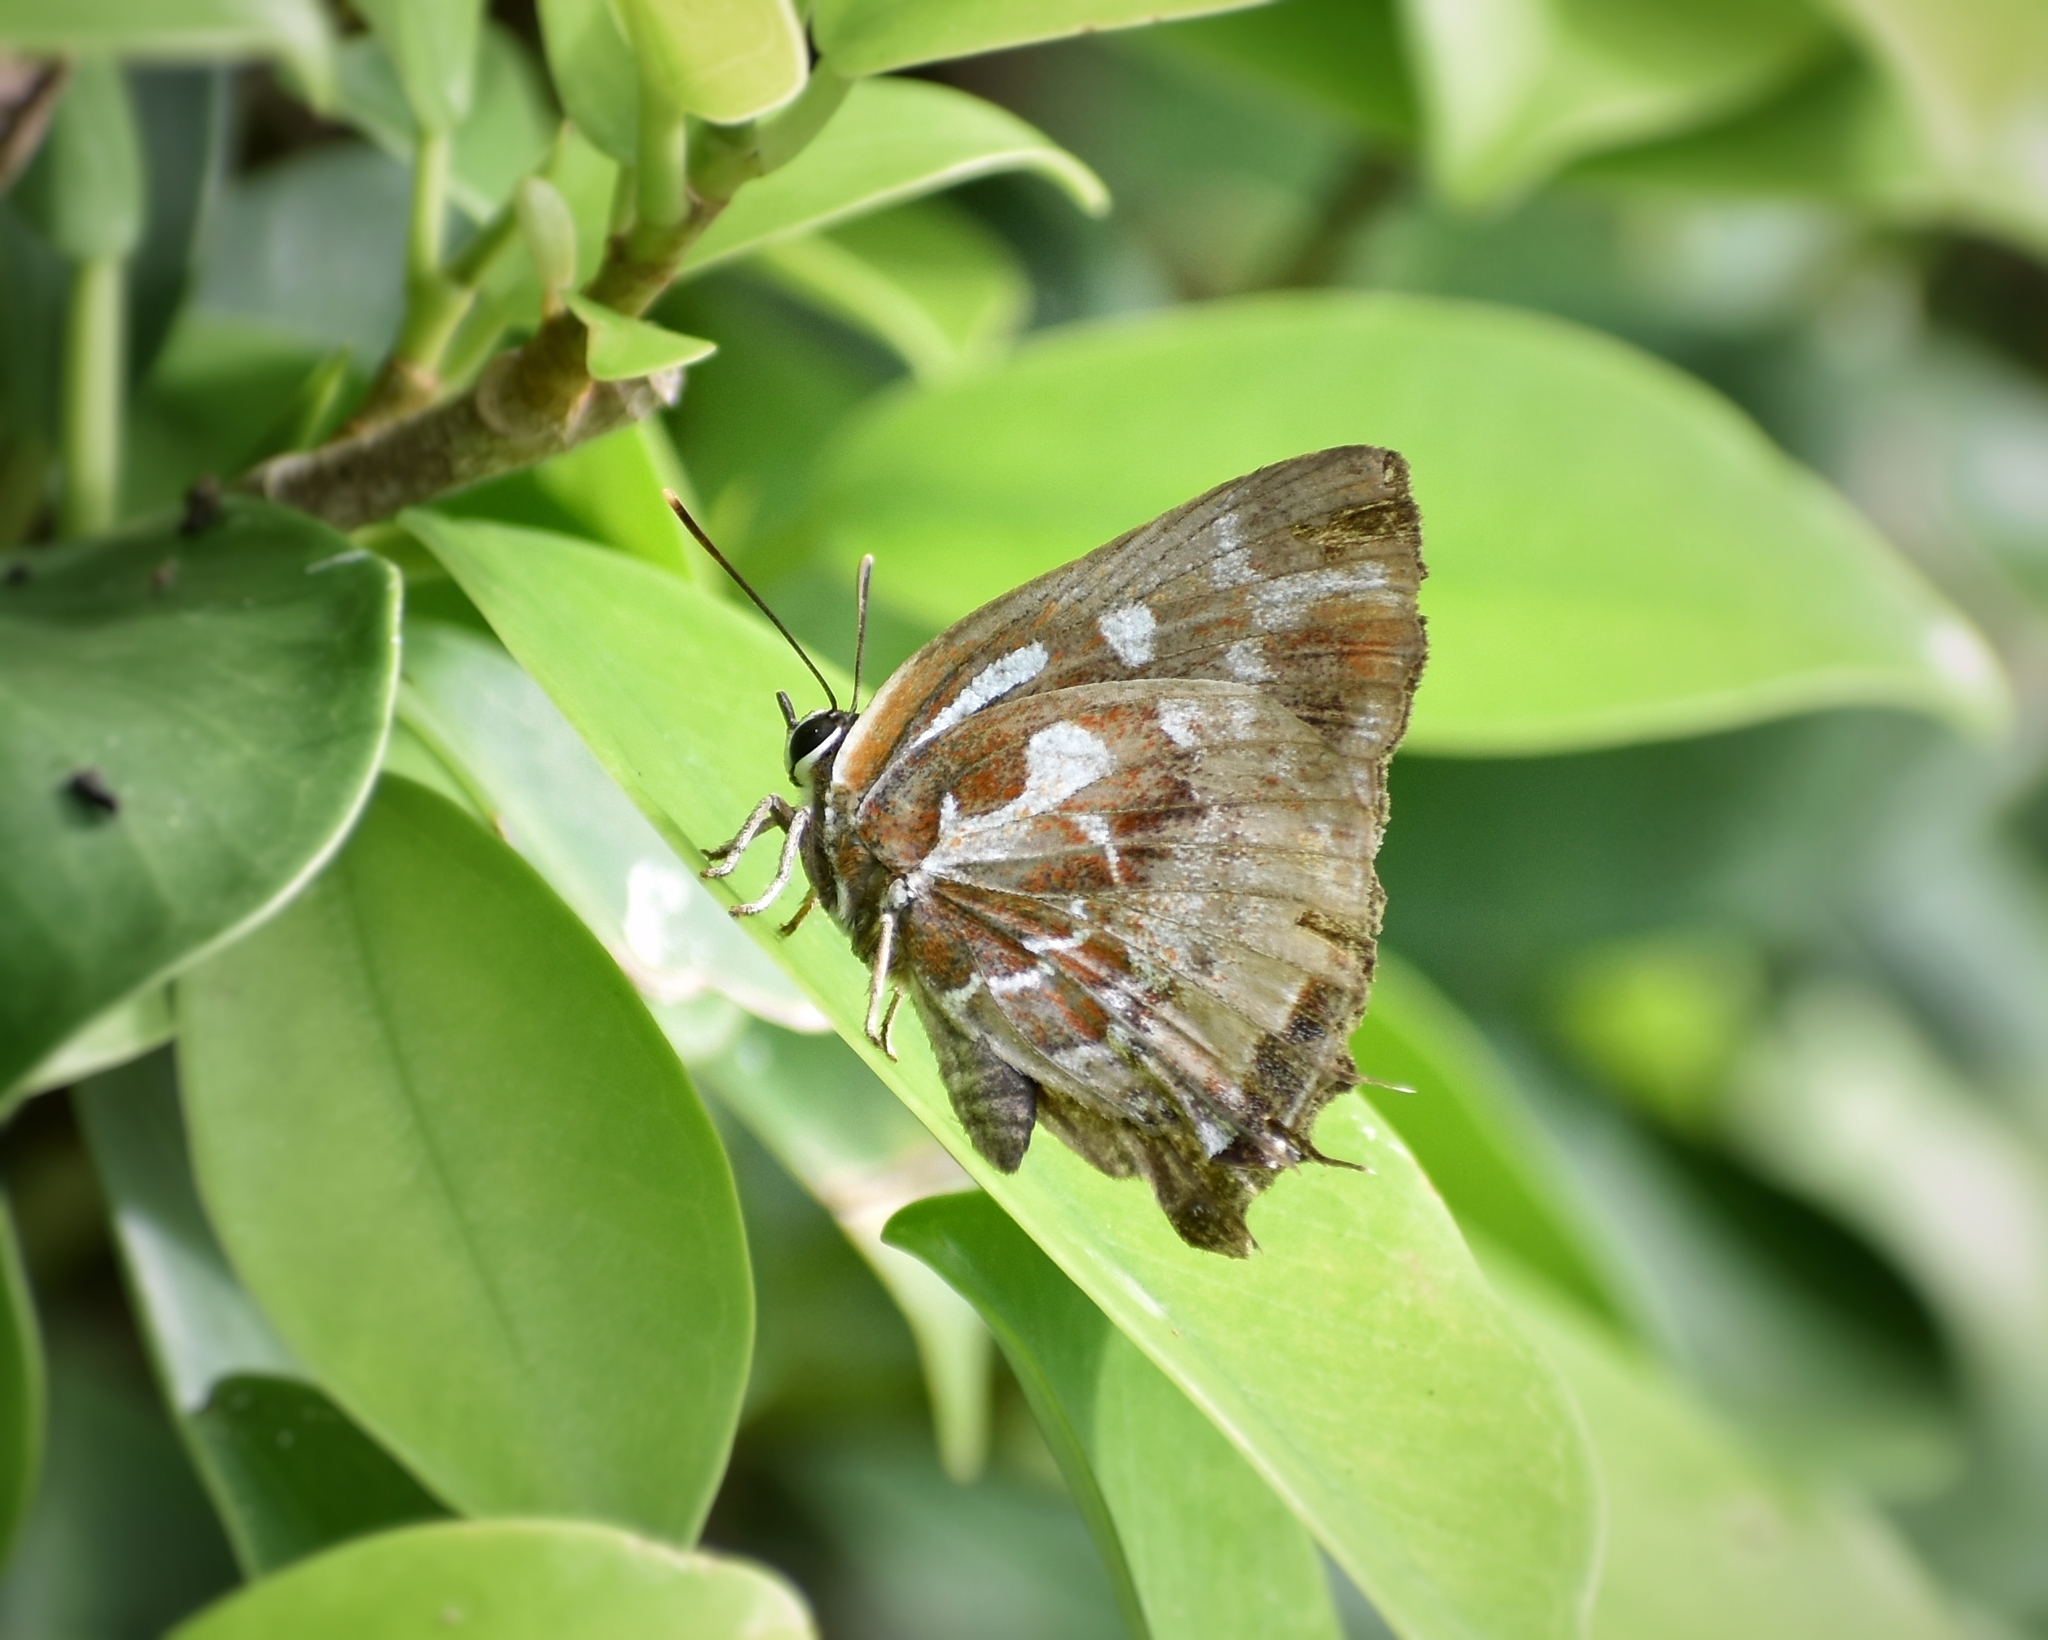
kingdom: Animalia
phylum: Arthropoda
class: Insecta
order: Lepidoptera
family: Lycaenidae
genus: Iraota
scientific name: Iraota timoleon
